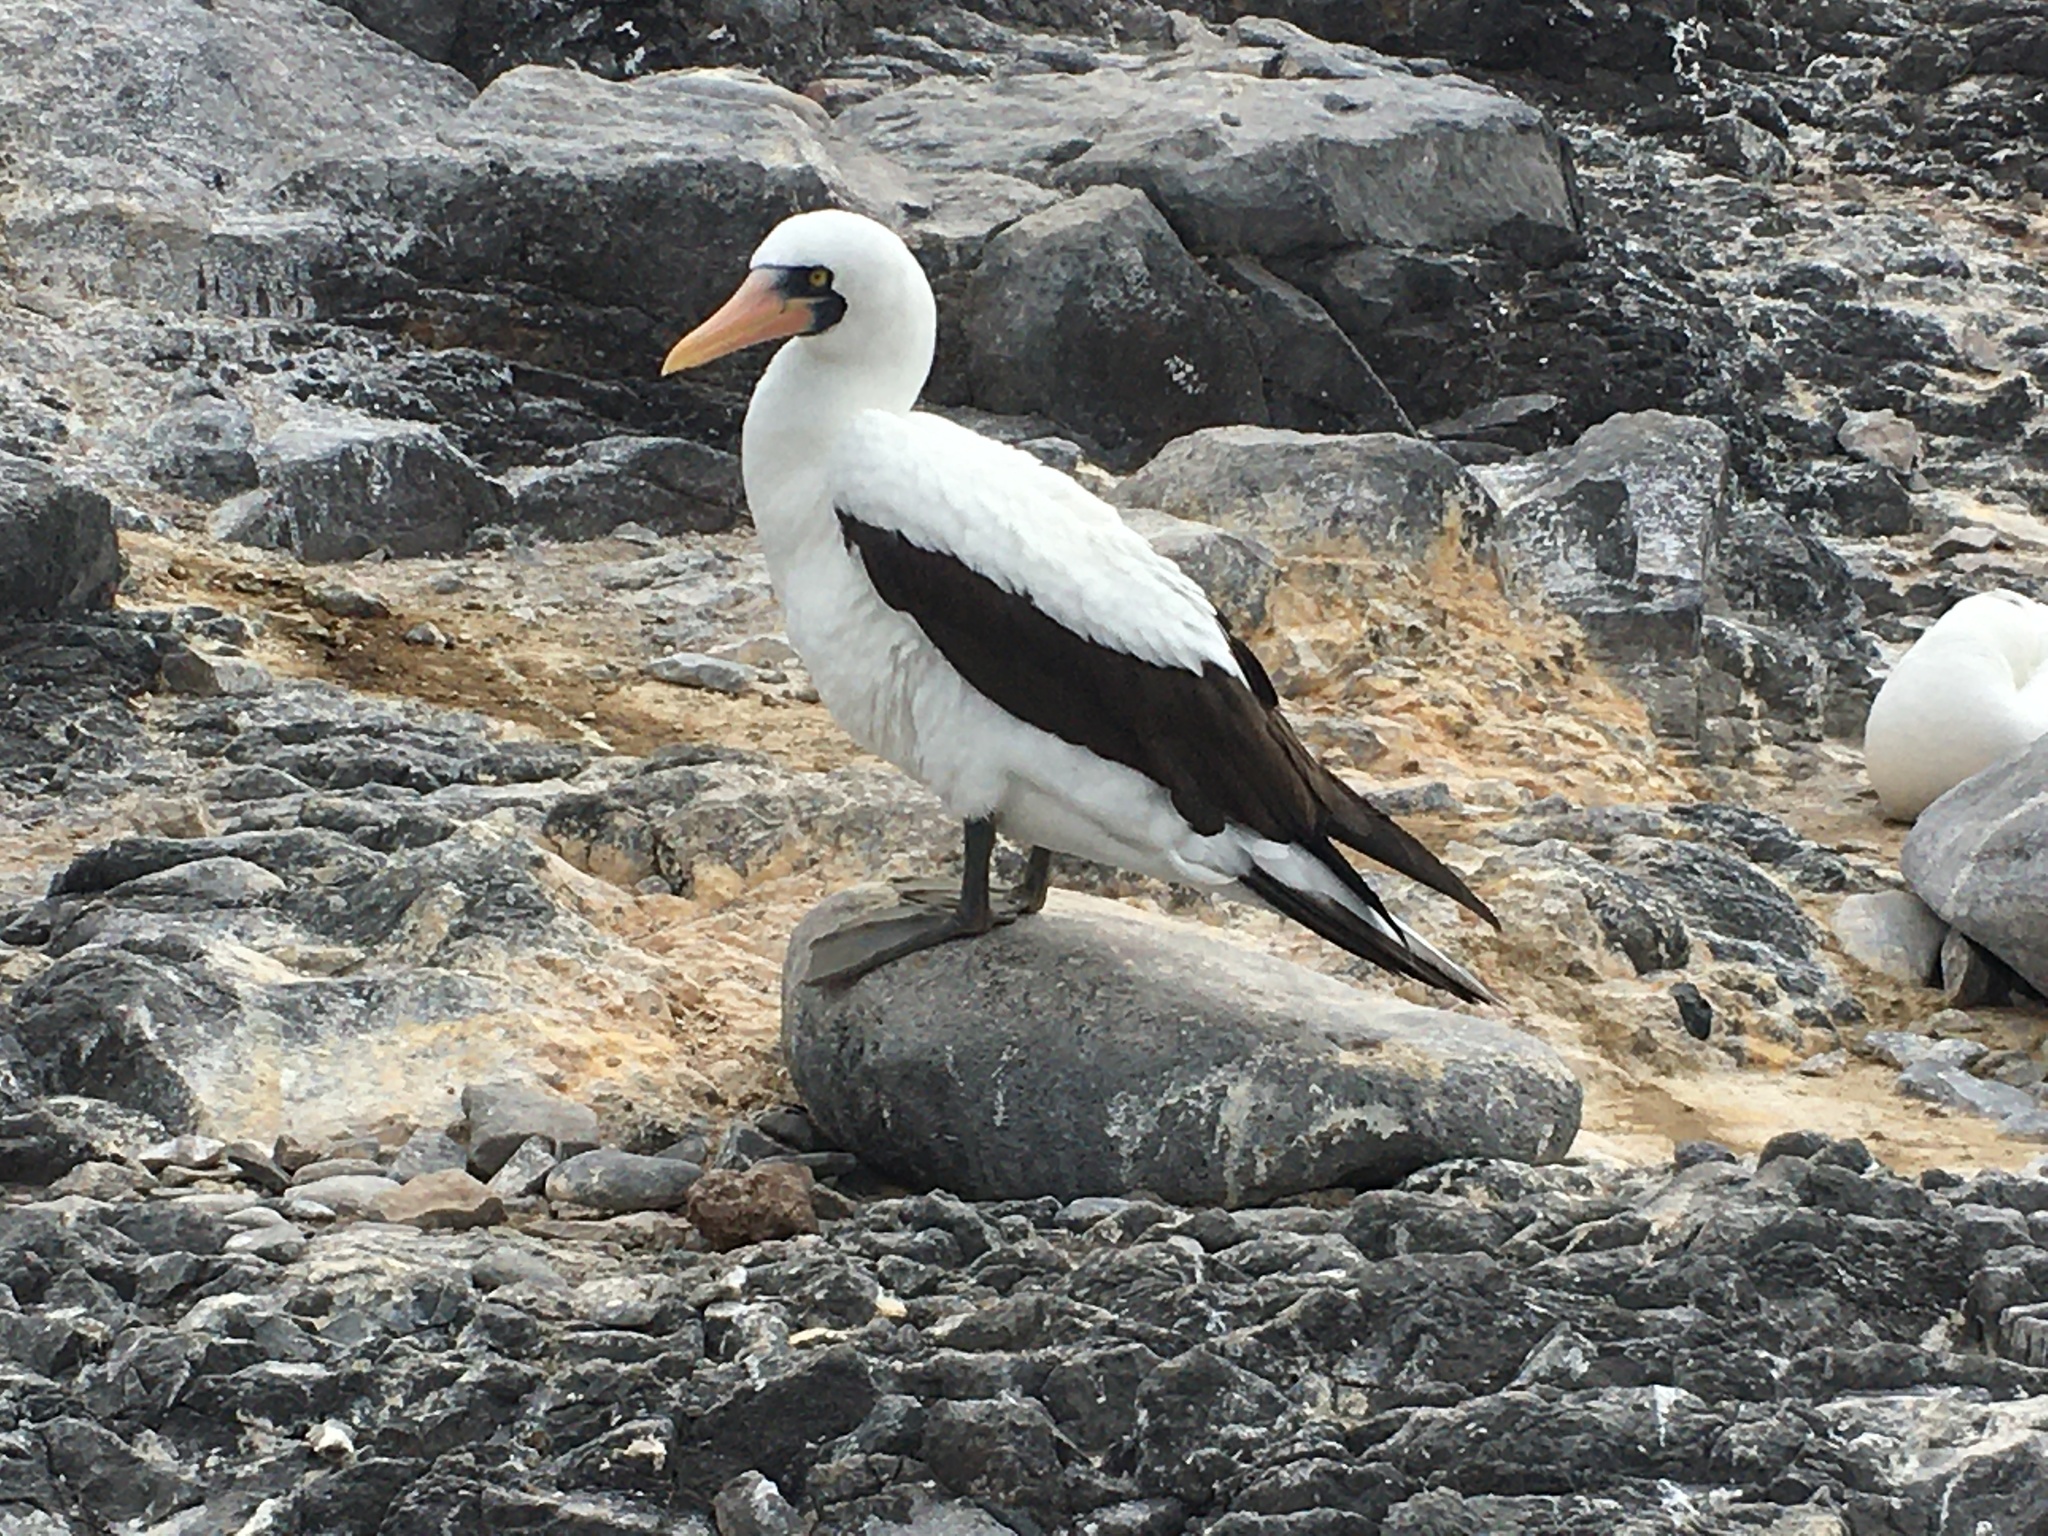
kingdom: Animalia
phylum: Chordata
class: Aves
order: Suliformes
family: Sulidae
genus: Sula
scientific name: Sula granti
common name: Nazca booby
